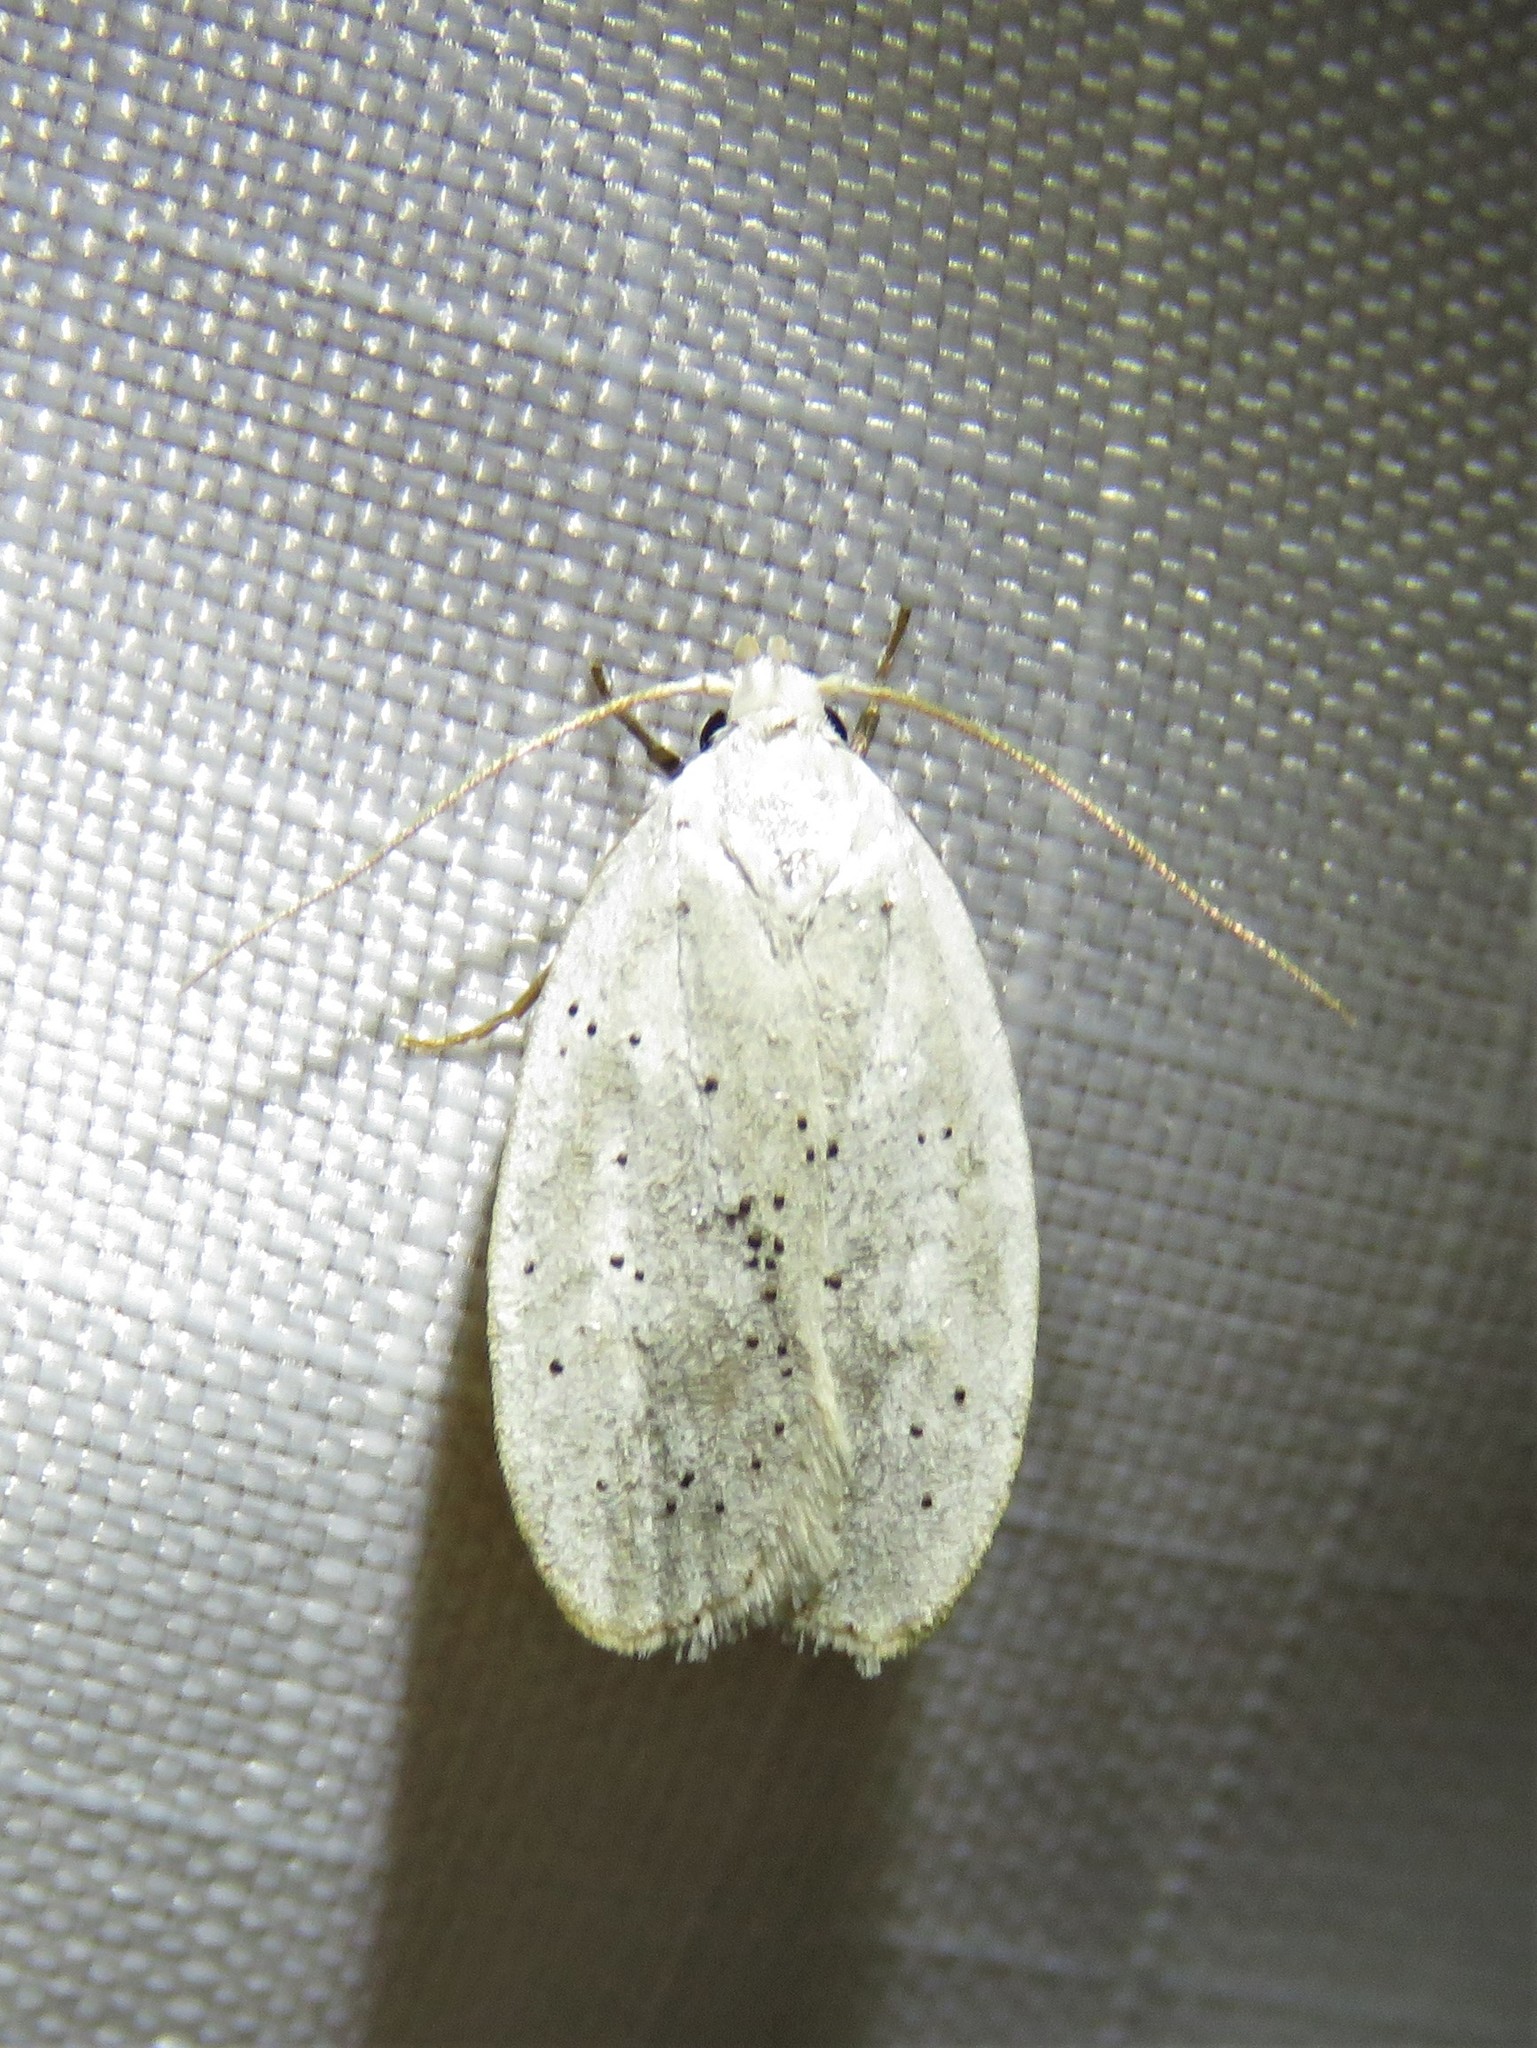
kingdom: Animalia
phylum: Arthropoda
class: Insecta
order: Lepidoptera
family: Peleopodidae
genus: Durrantia
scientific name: Durrantia piperatella
